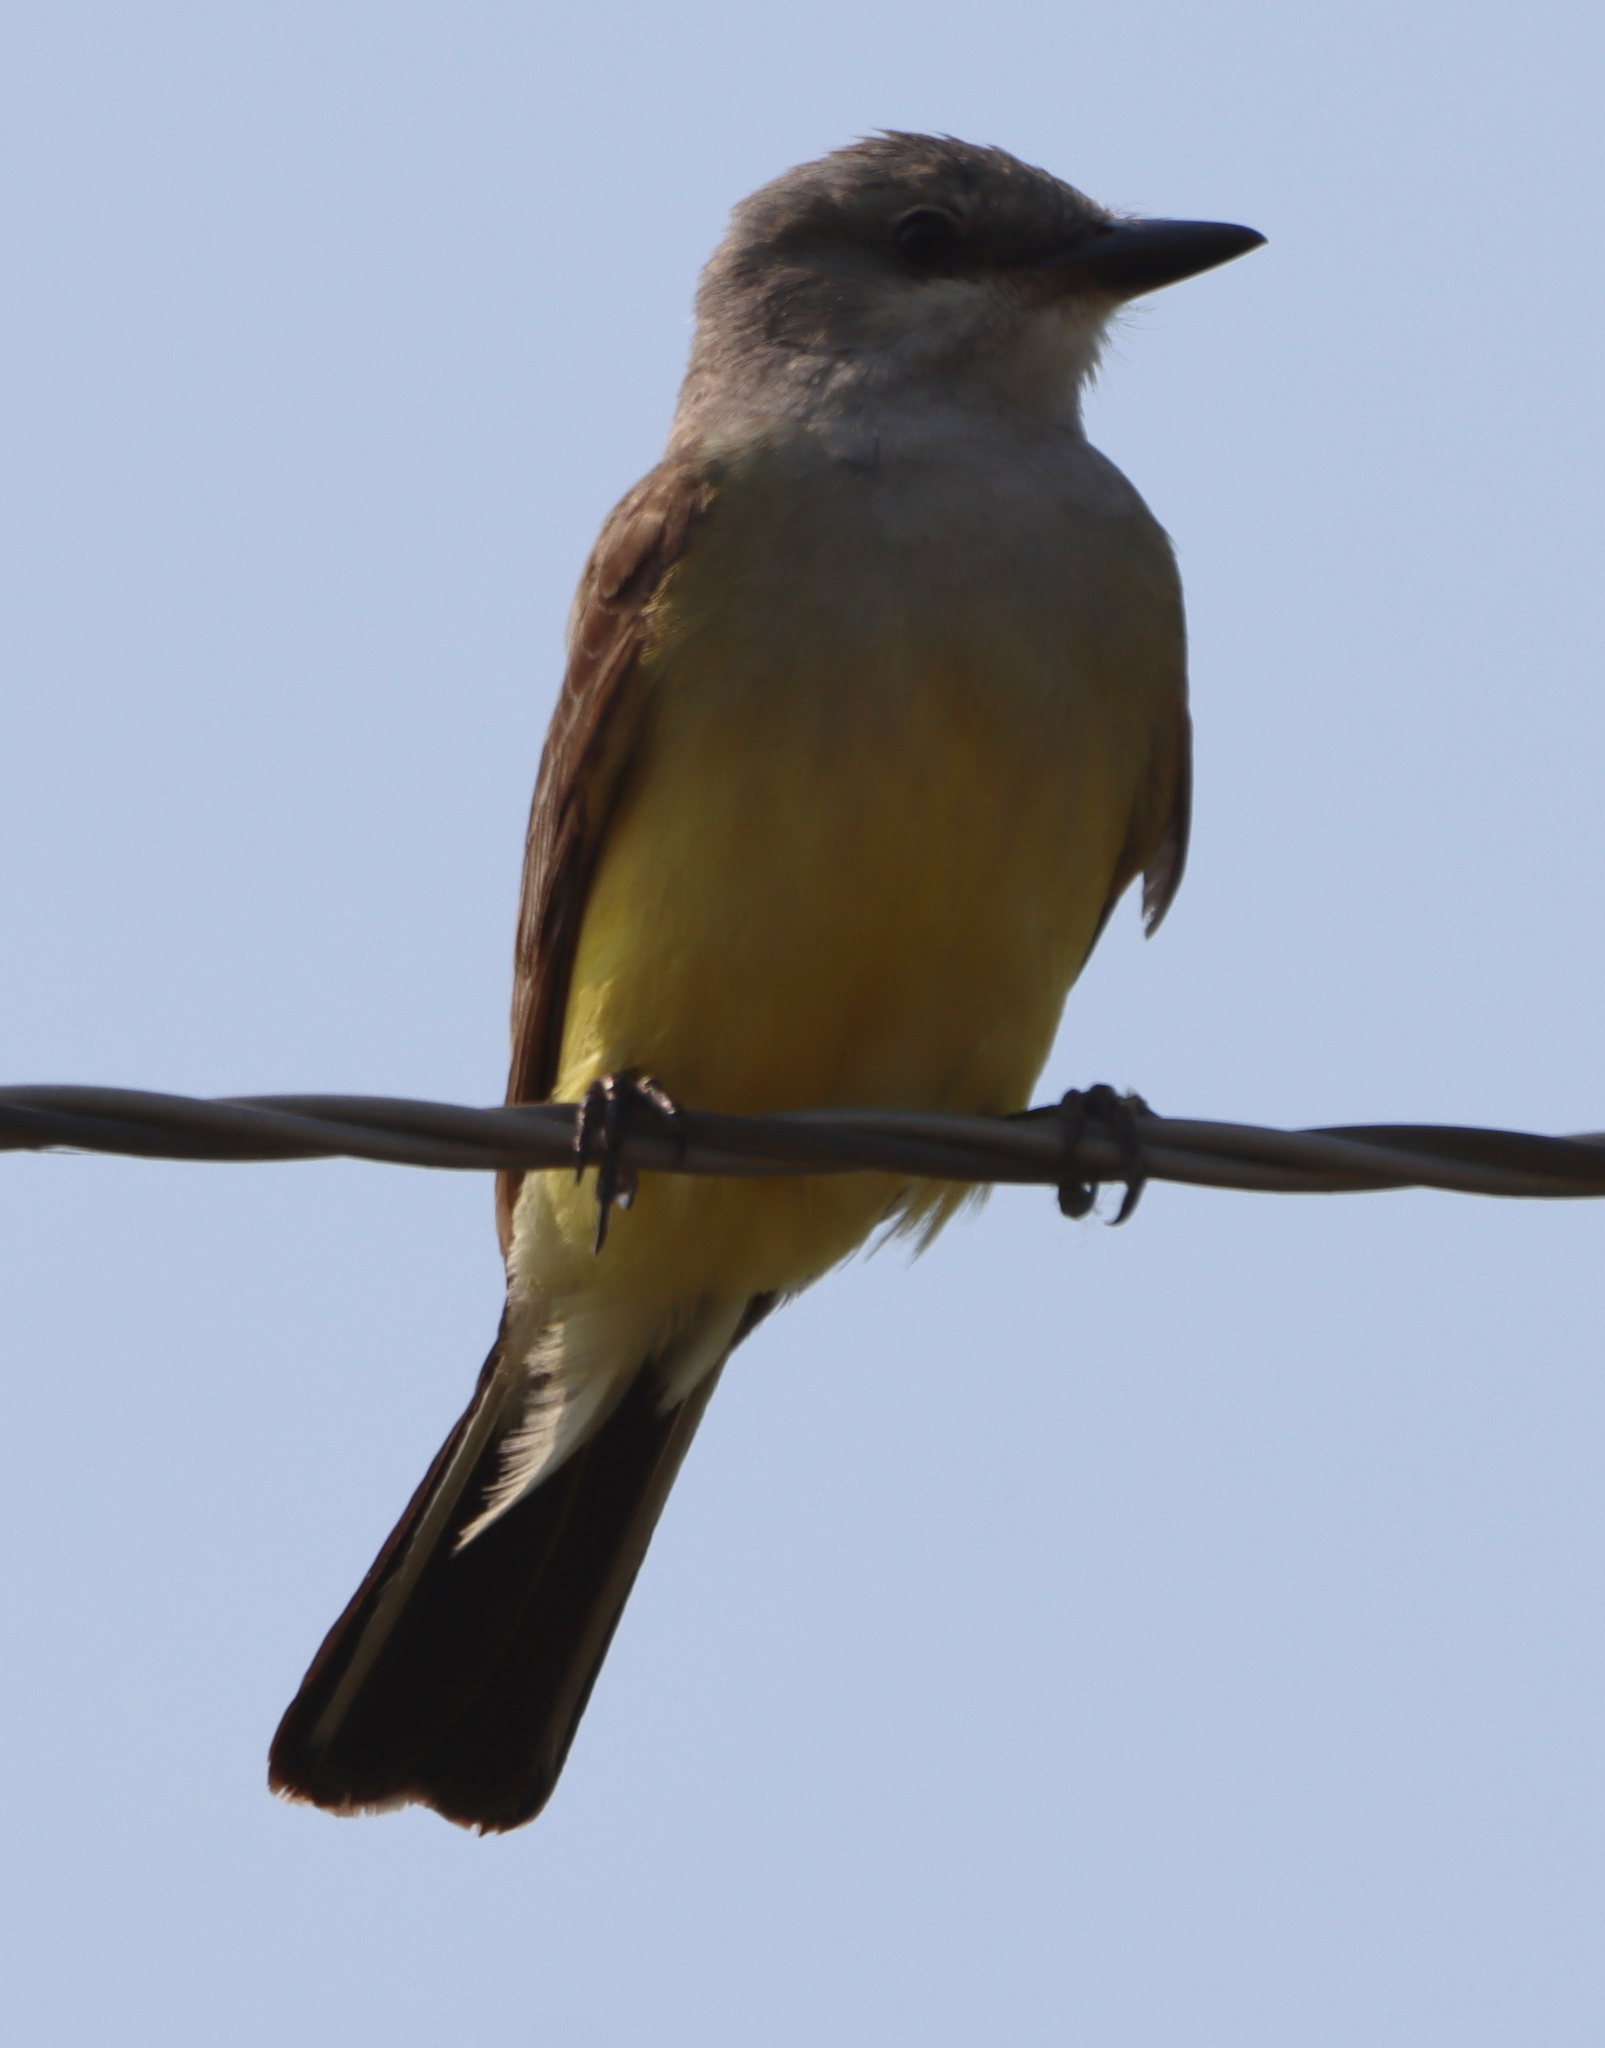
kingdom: Animalia
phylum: Chordata
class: Aves
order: Passeriformes
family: Tyrannidae
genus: Tyrannus
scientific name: Tyrannus verticalis
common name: Western kingbird
